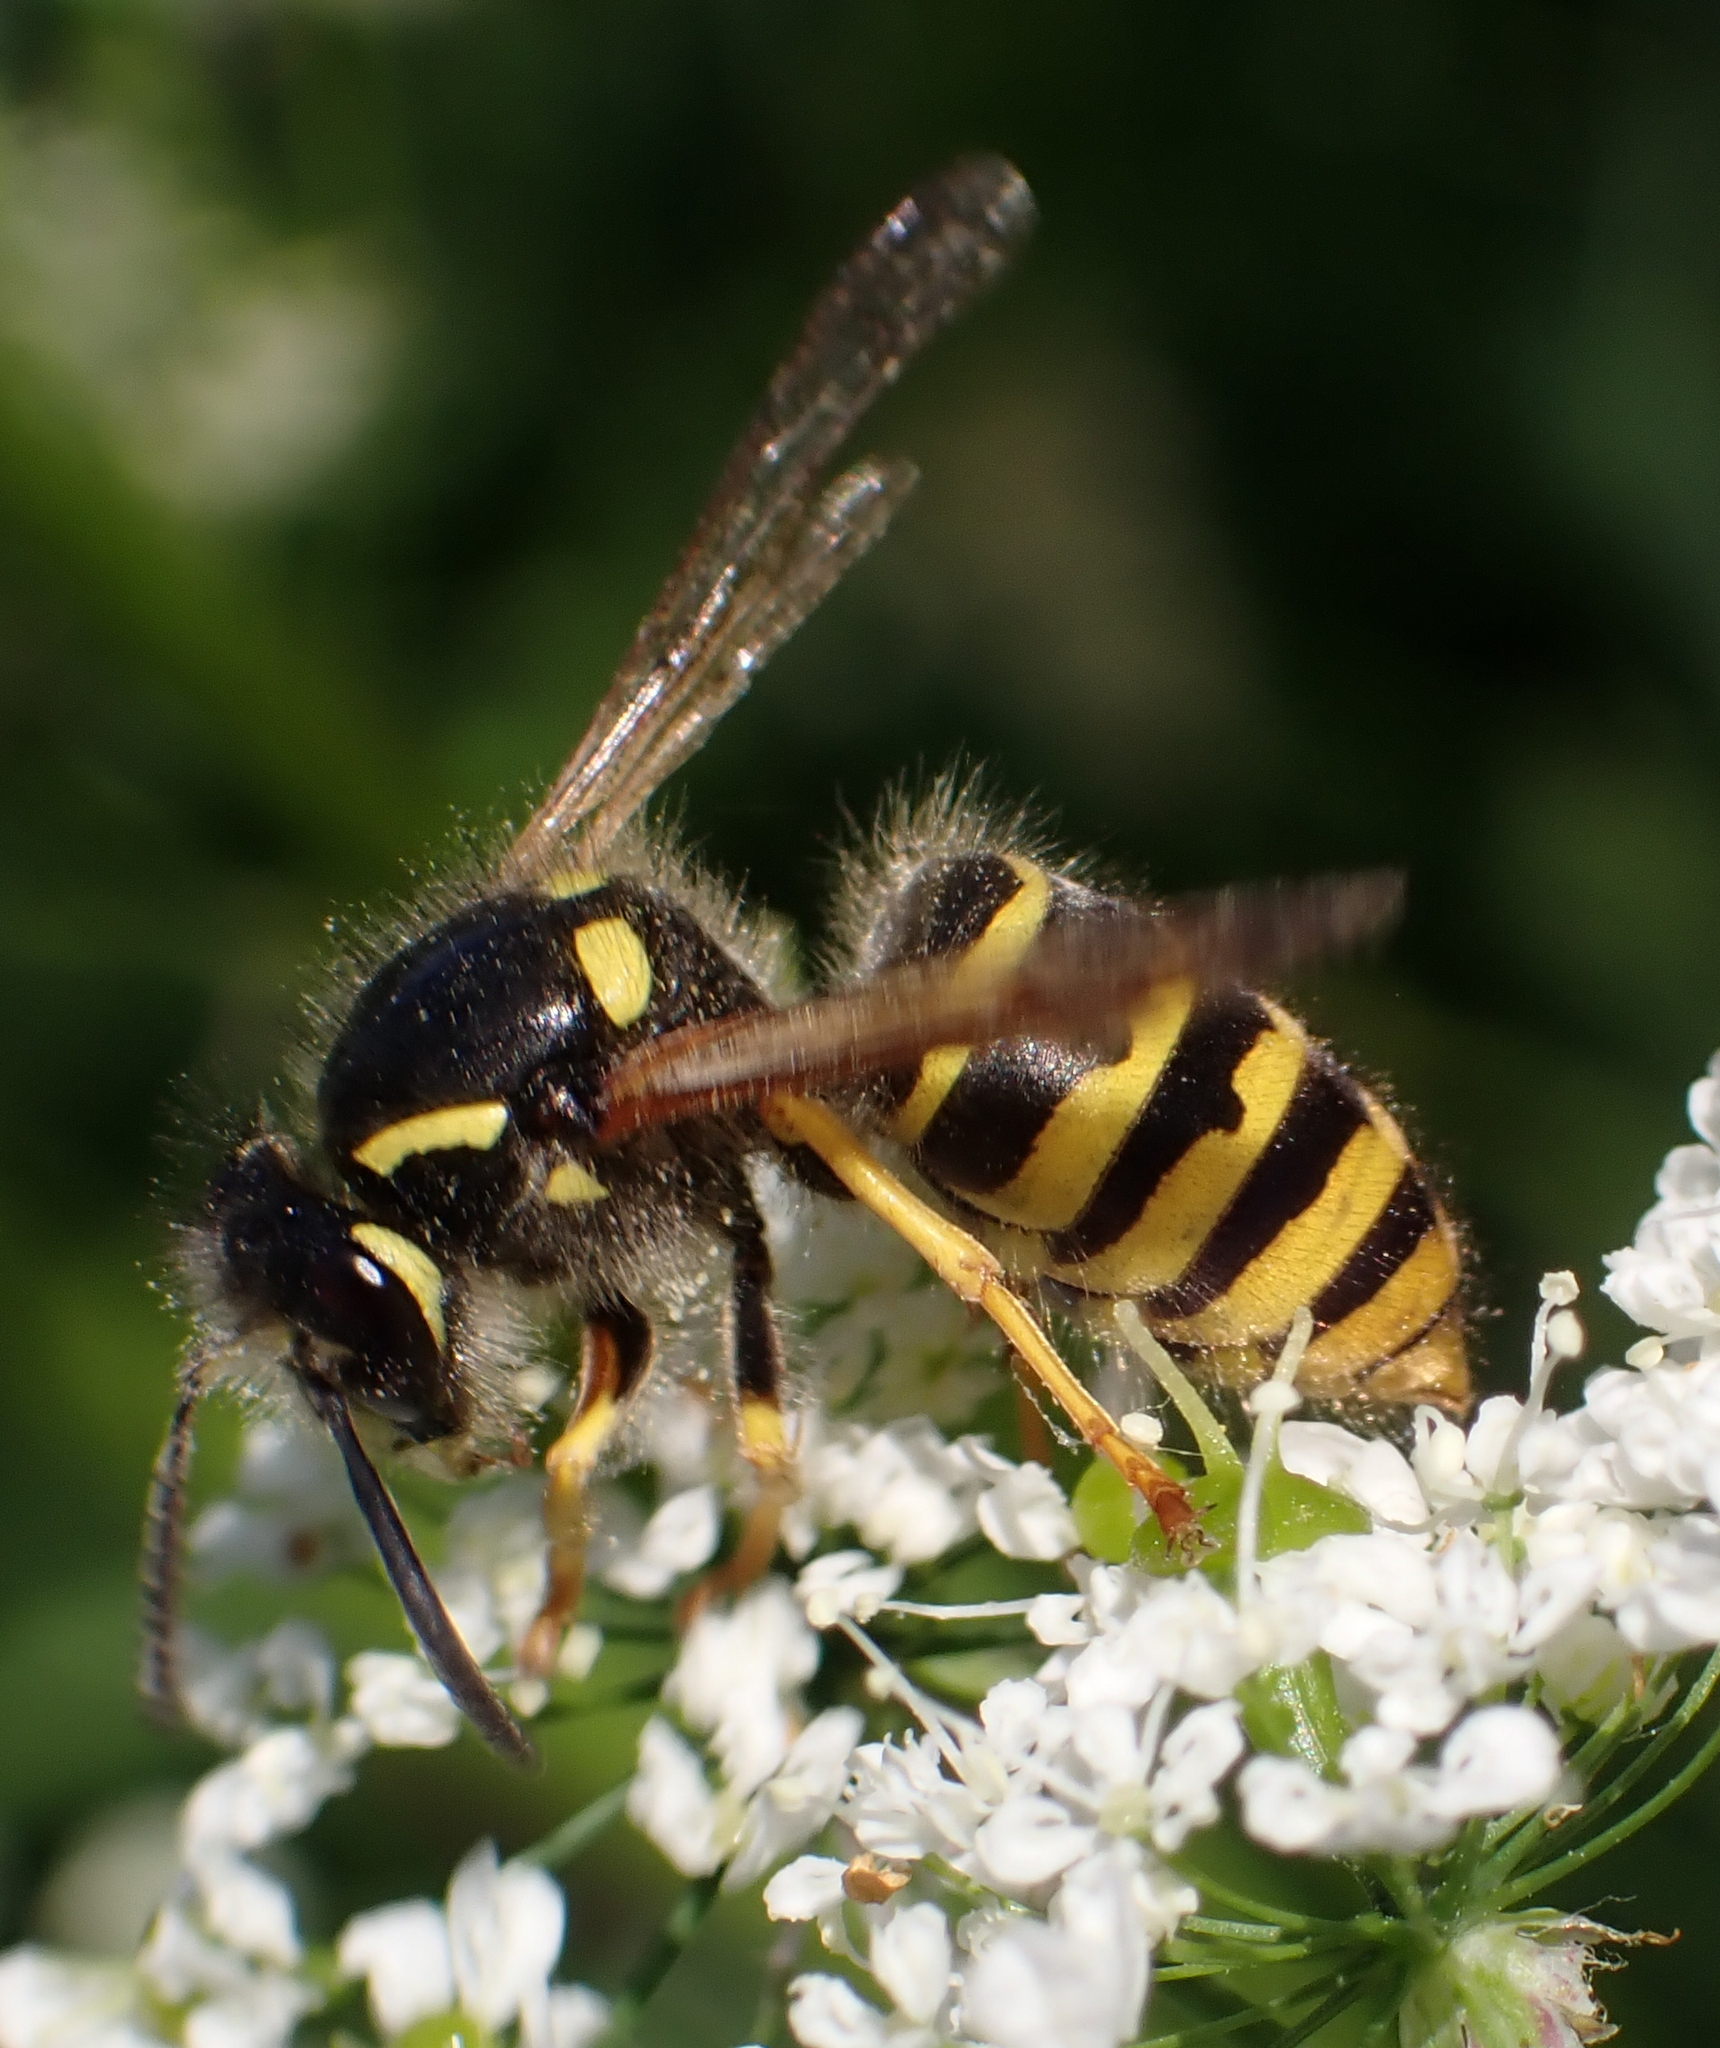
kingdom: Animalia
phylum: Arthropoda
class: Insecta
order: Hymenoptera
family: Vespidae
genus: Dolichovespula
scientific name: Dolichovespula sylvestris
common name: Tree wasp
